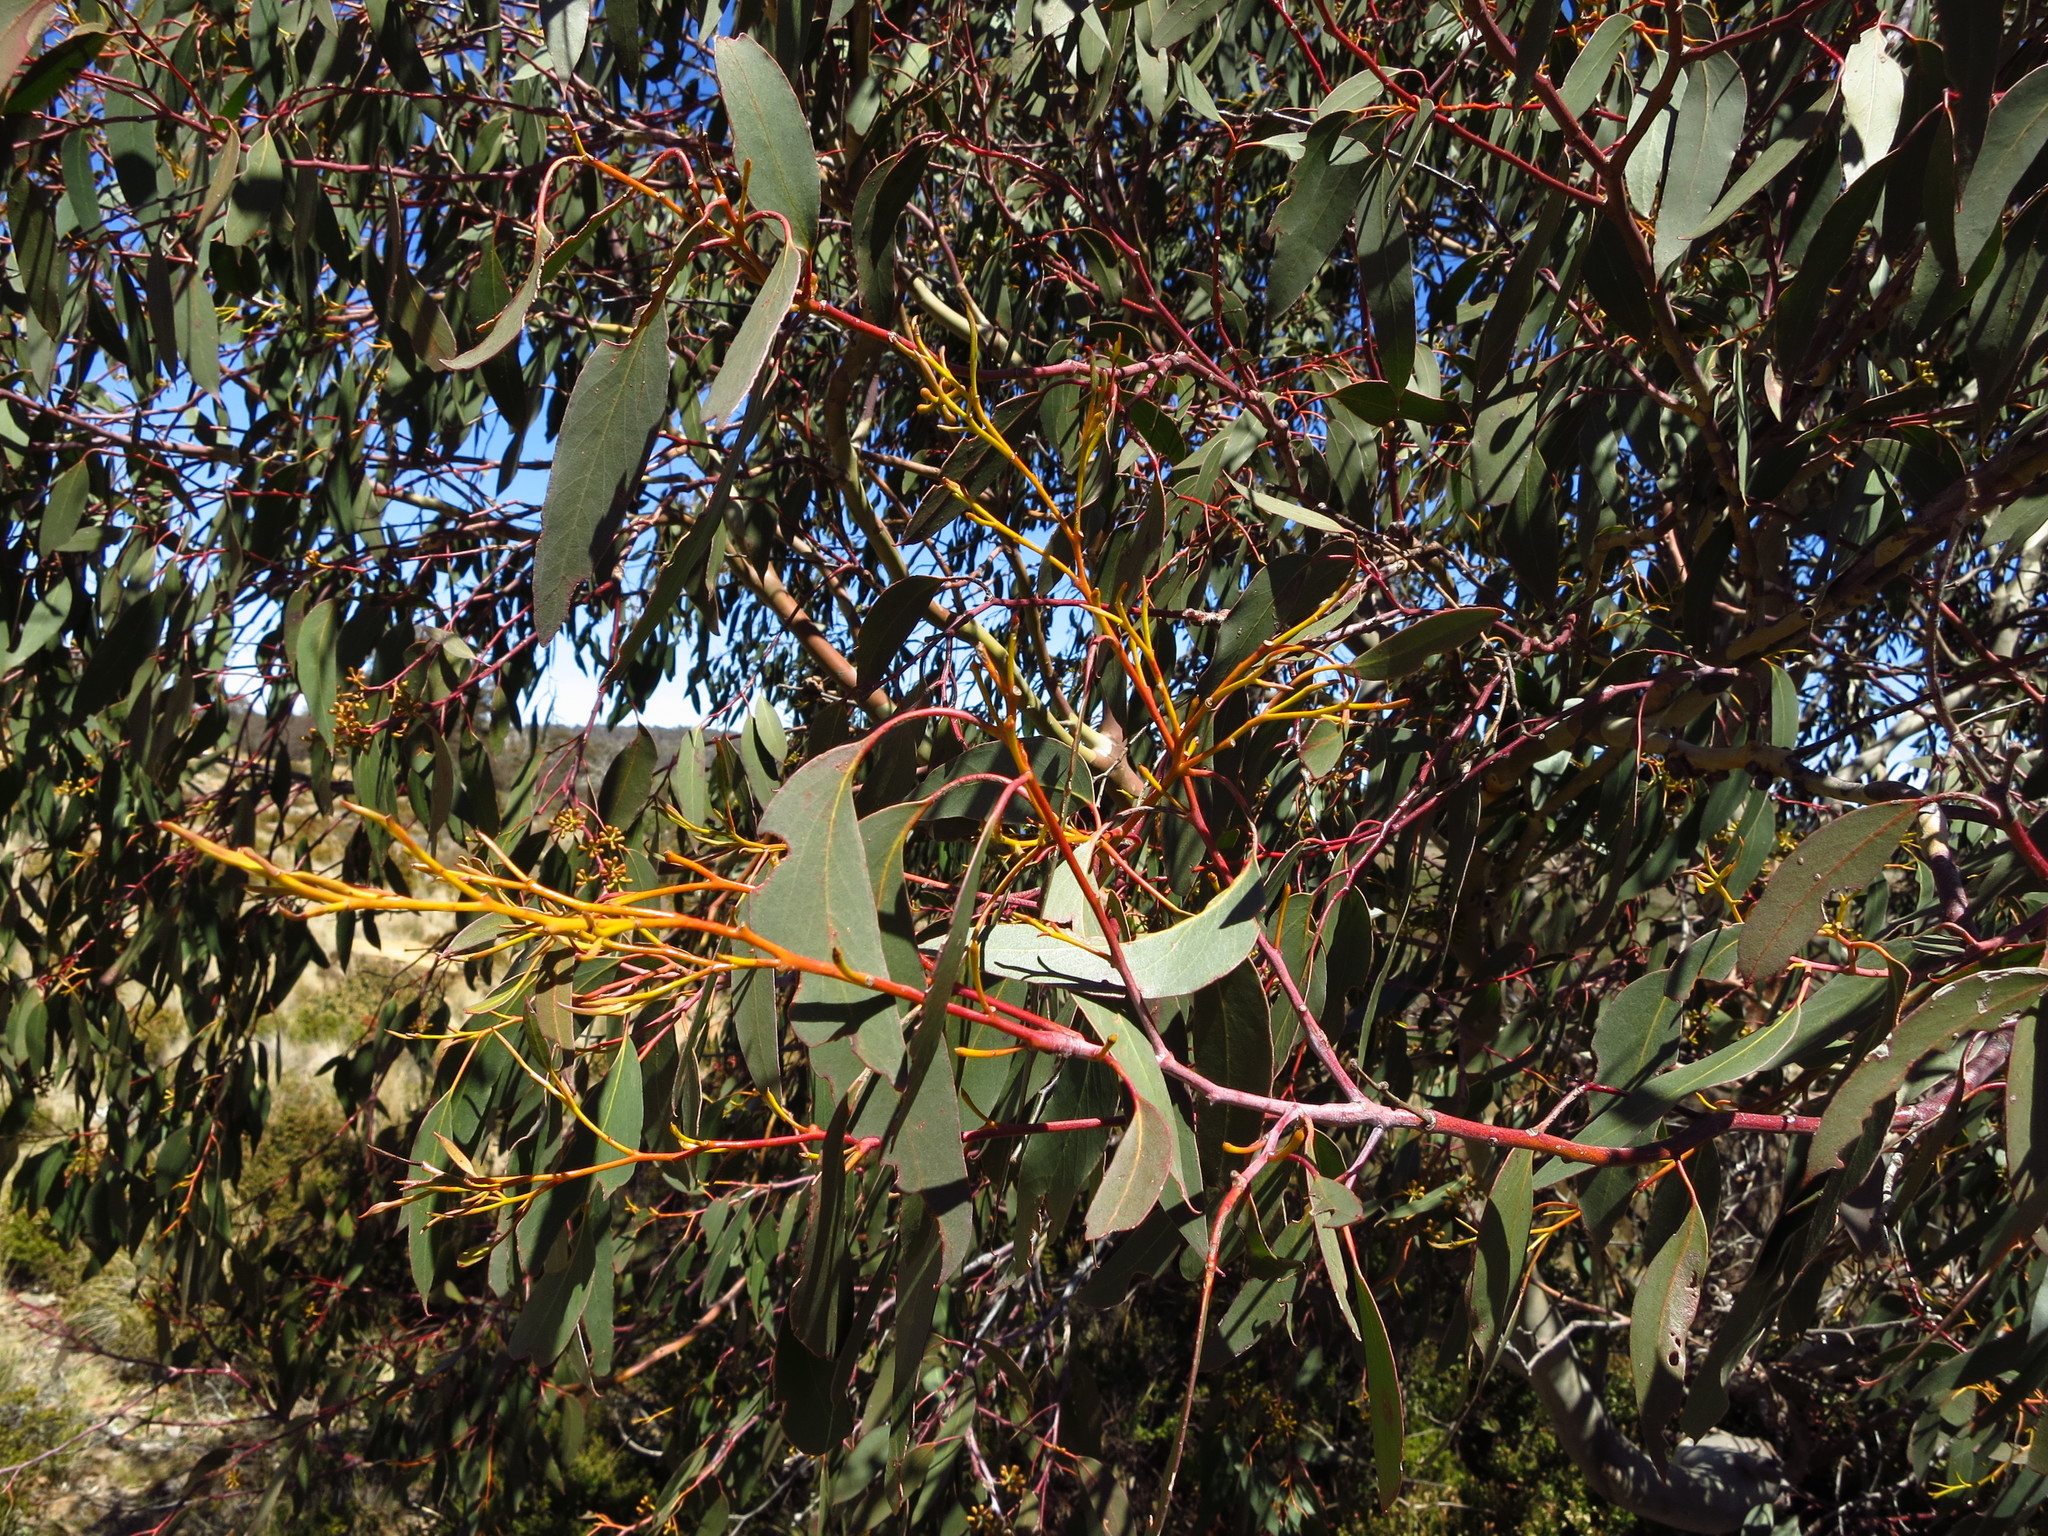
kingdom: Plantae
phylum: Tracheophyta
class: Magnoliopsida
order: Myrtales
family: Myrtaceae
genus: Eucalyptus
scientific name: Eucalyptus
